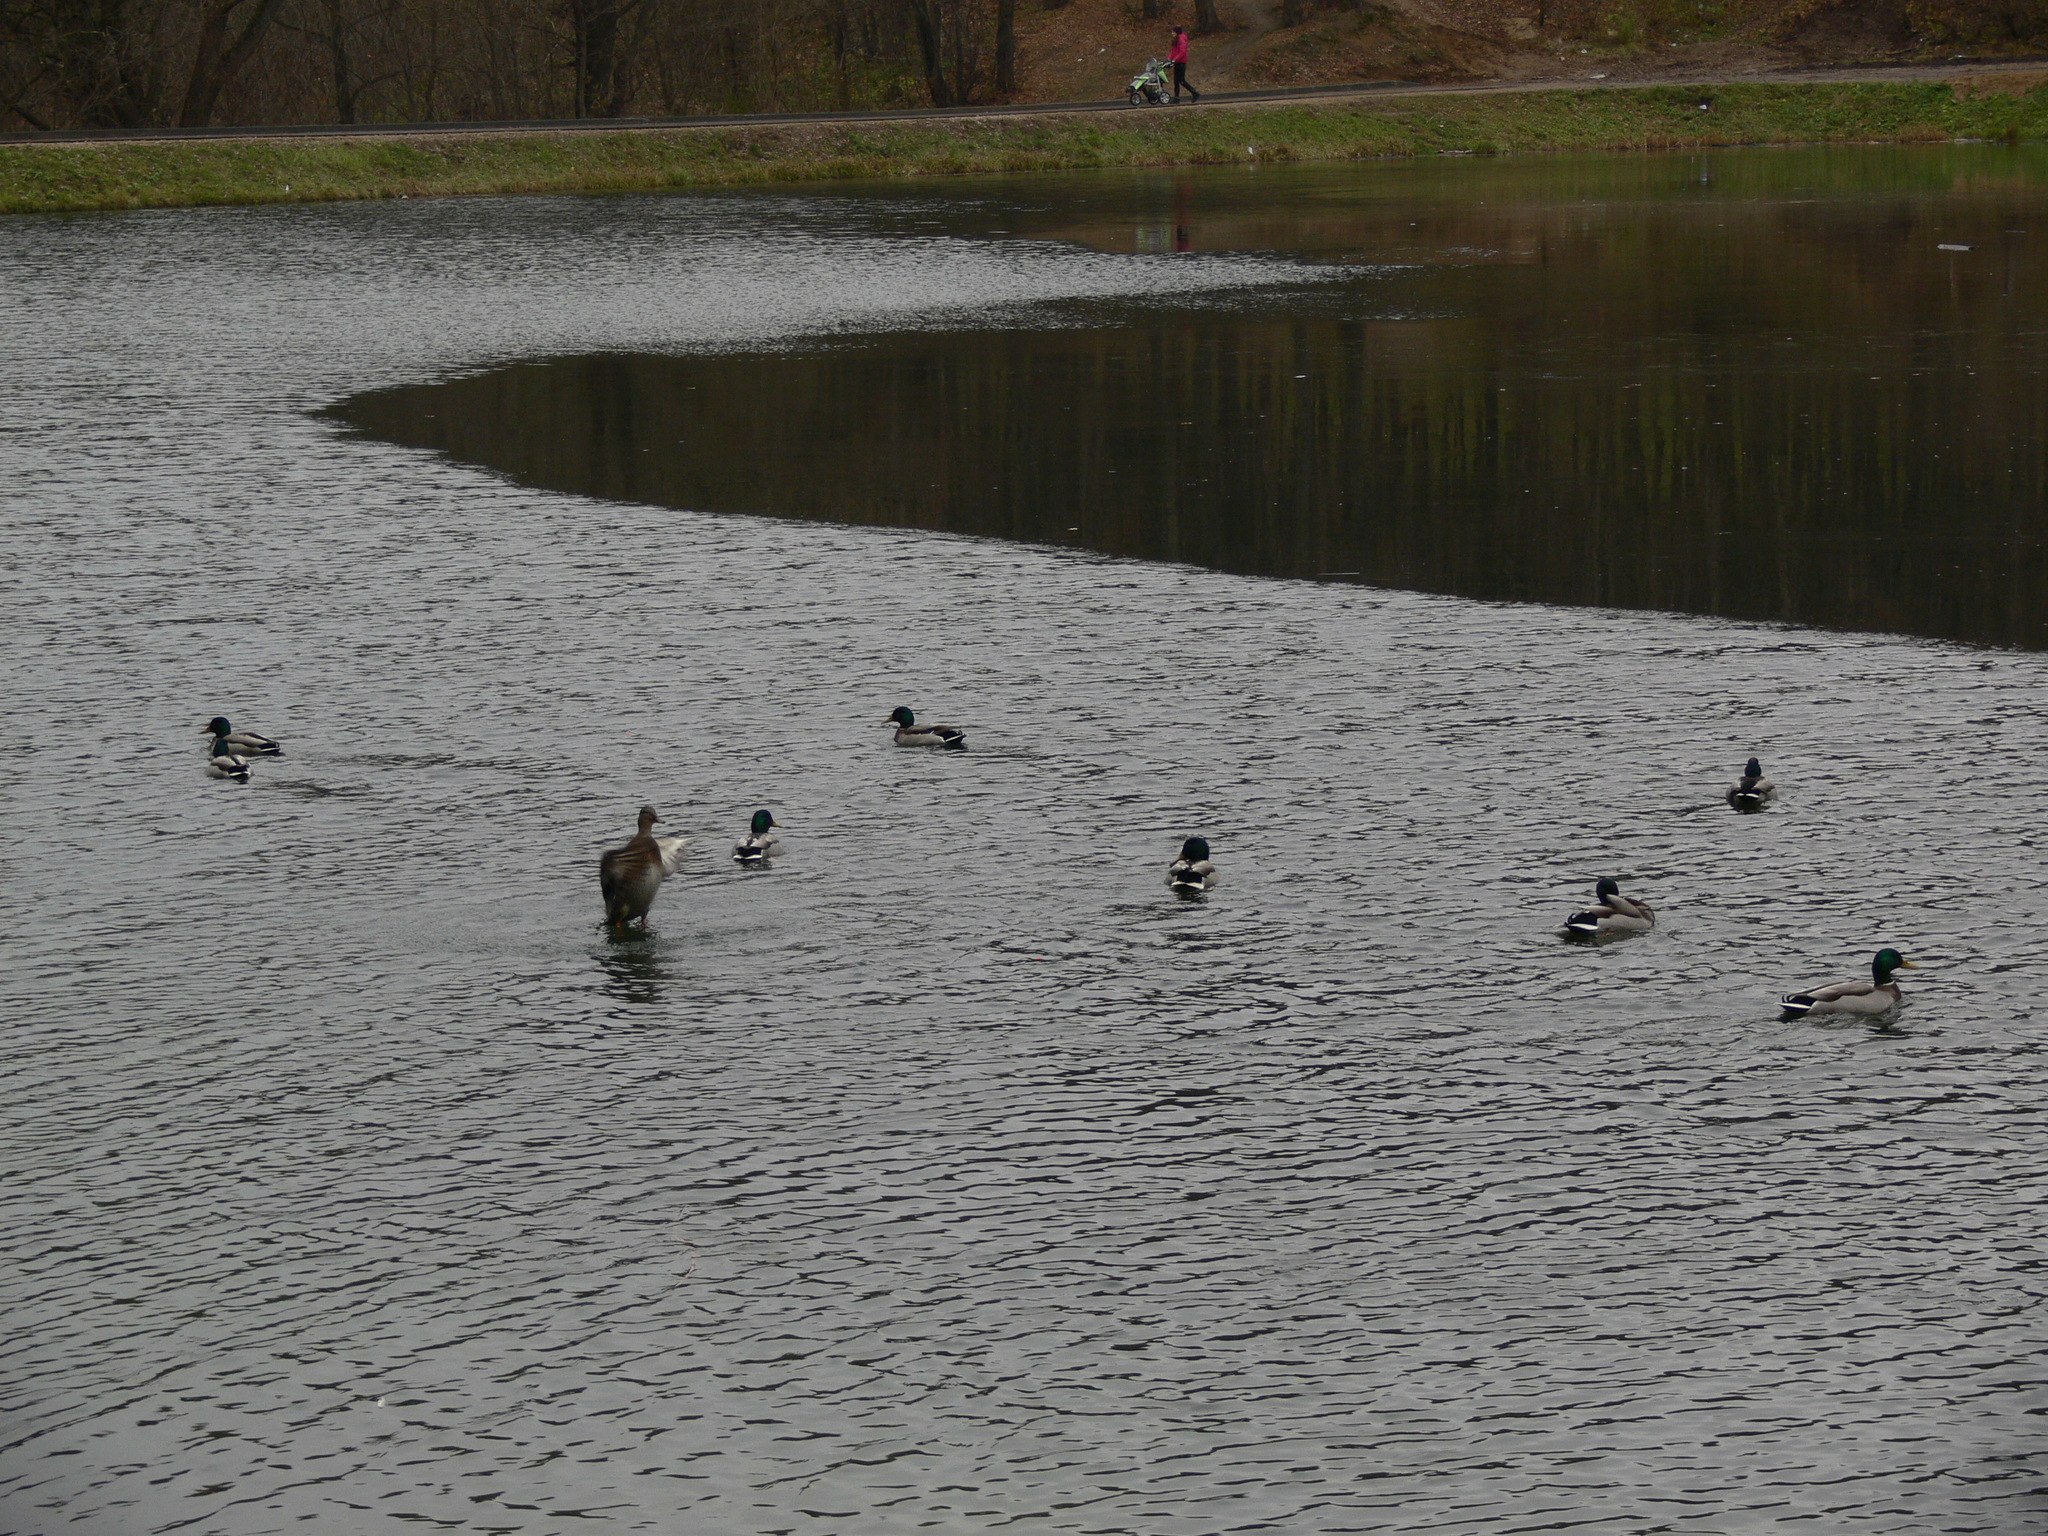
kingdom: Animalia
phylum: Chordata
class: Aves
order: Anseriformes
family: Anatidae
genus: Anas
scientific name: Anas platyrhynchos
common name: Mallard
